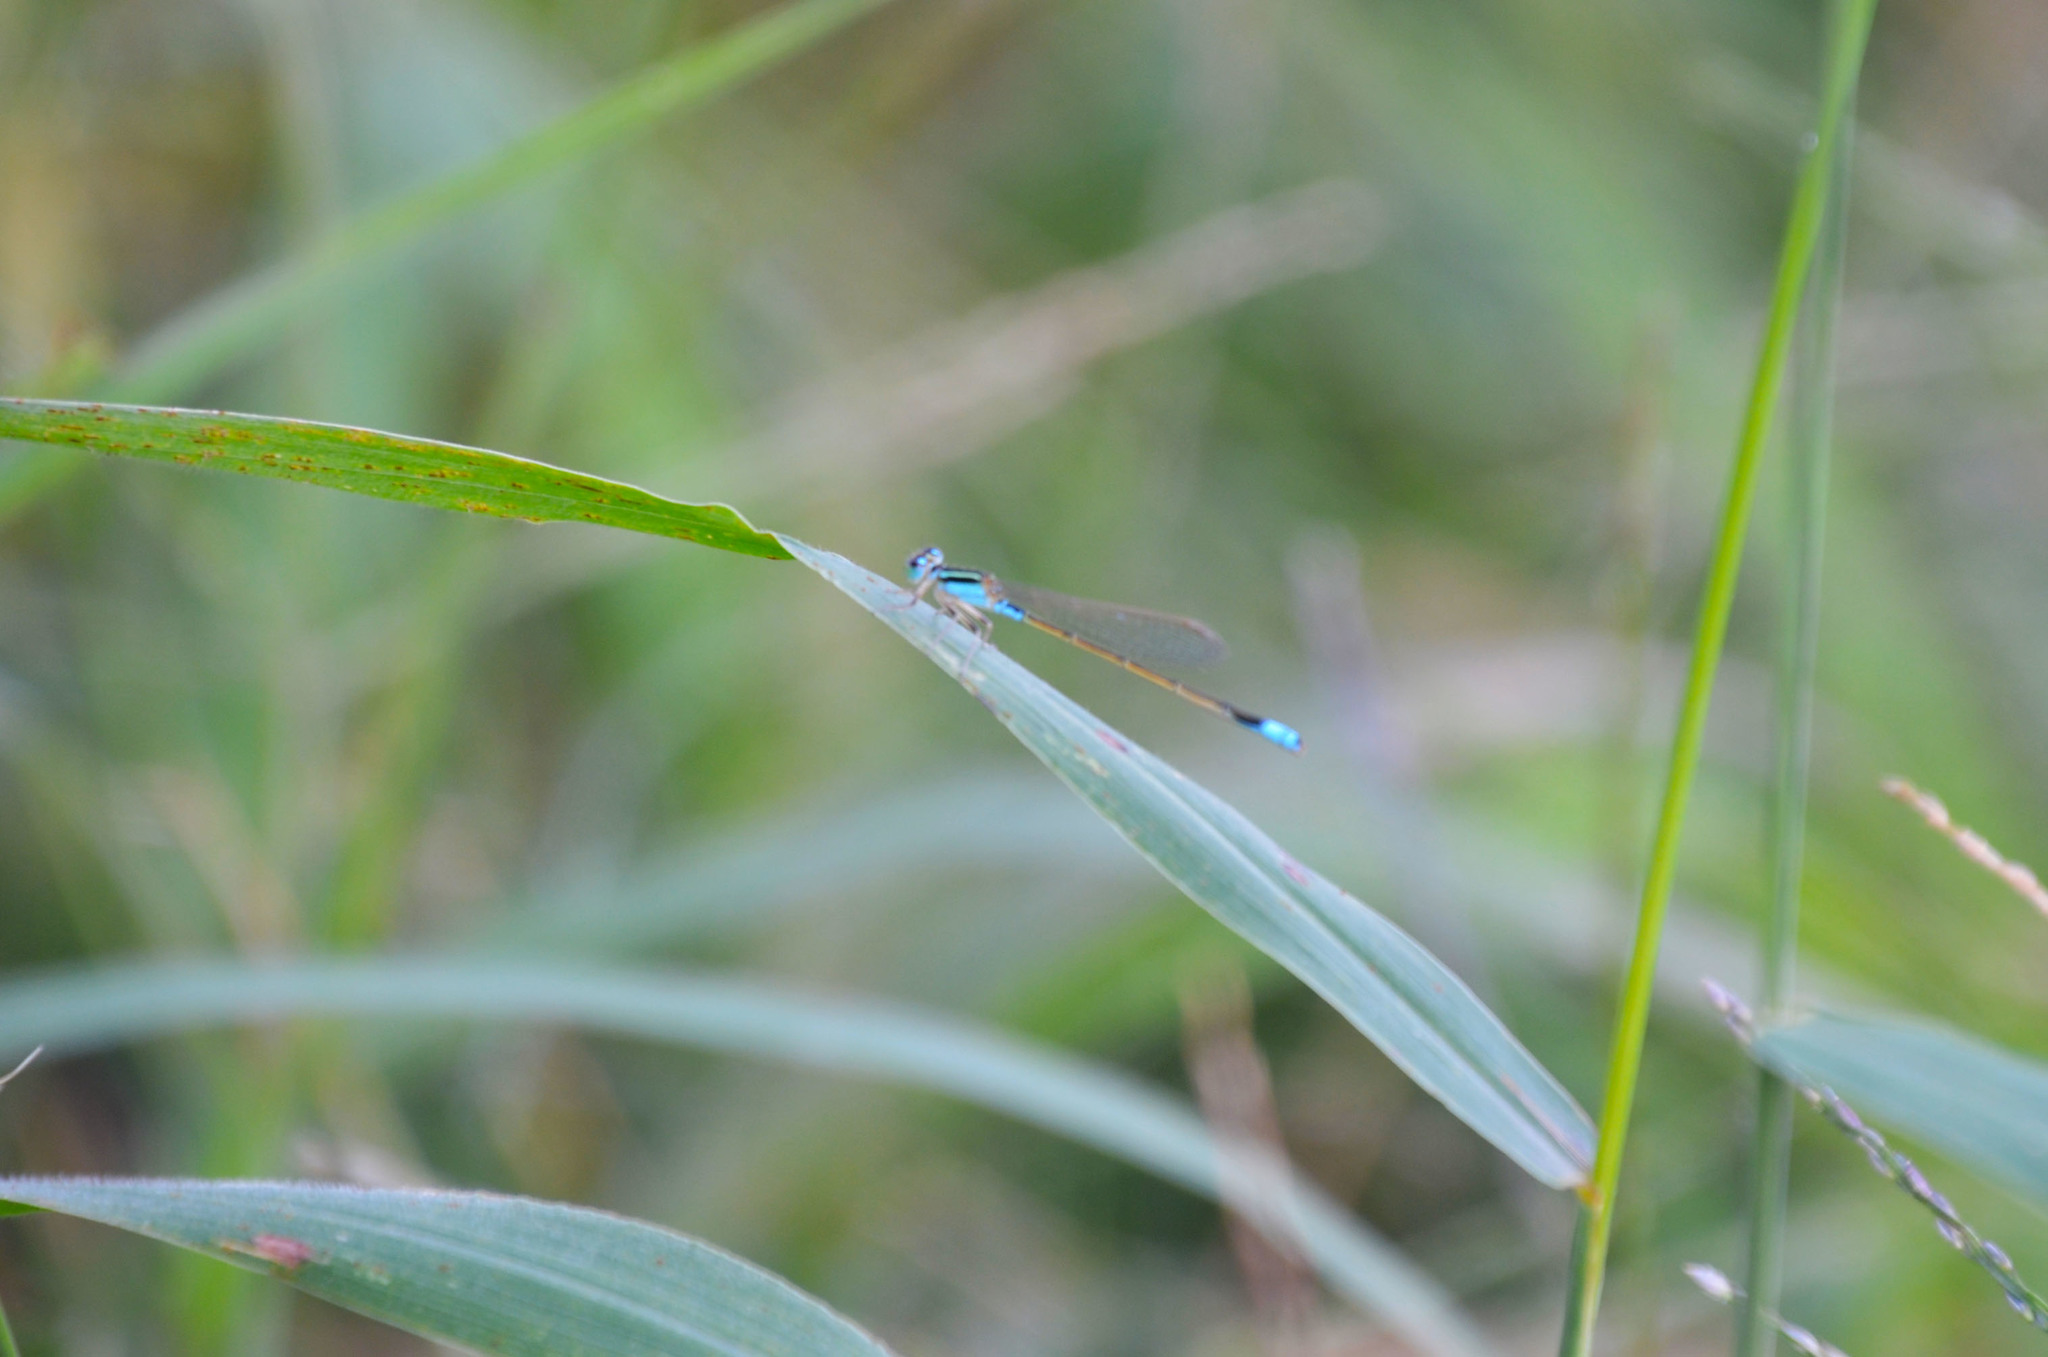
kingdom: Animalia
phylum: Arthropoda
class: Insecta
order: Odonata
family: Coenagrionidae
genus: Ischnura
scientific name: Ischnura fluviatilis
